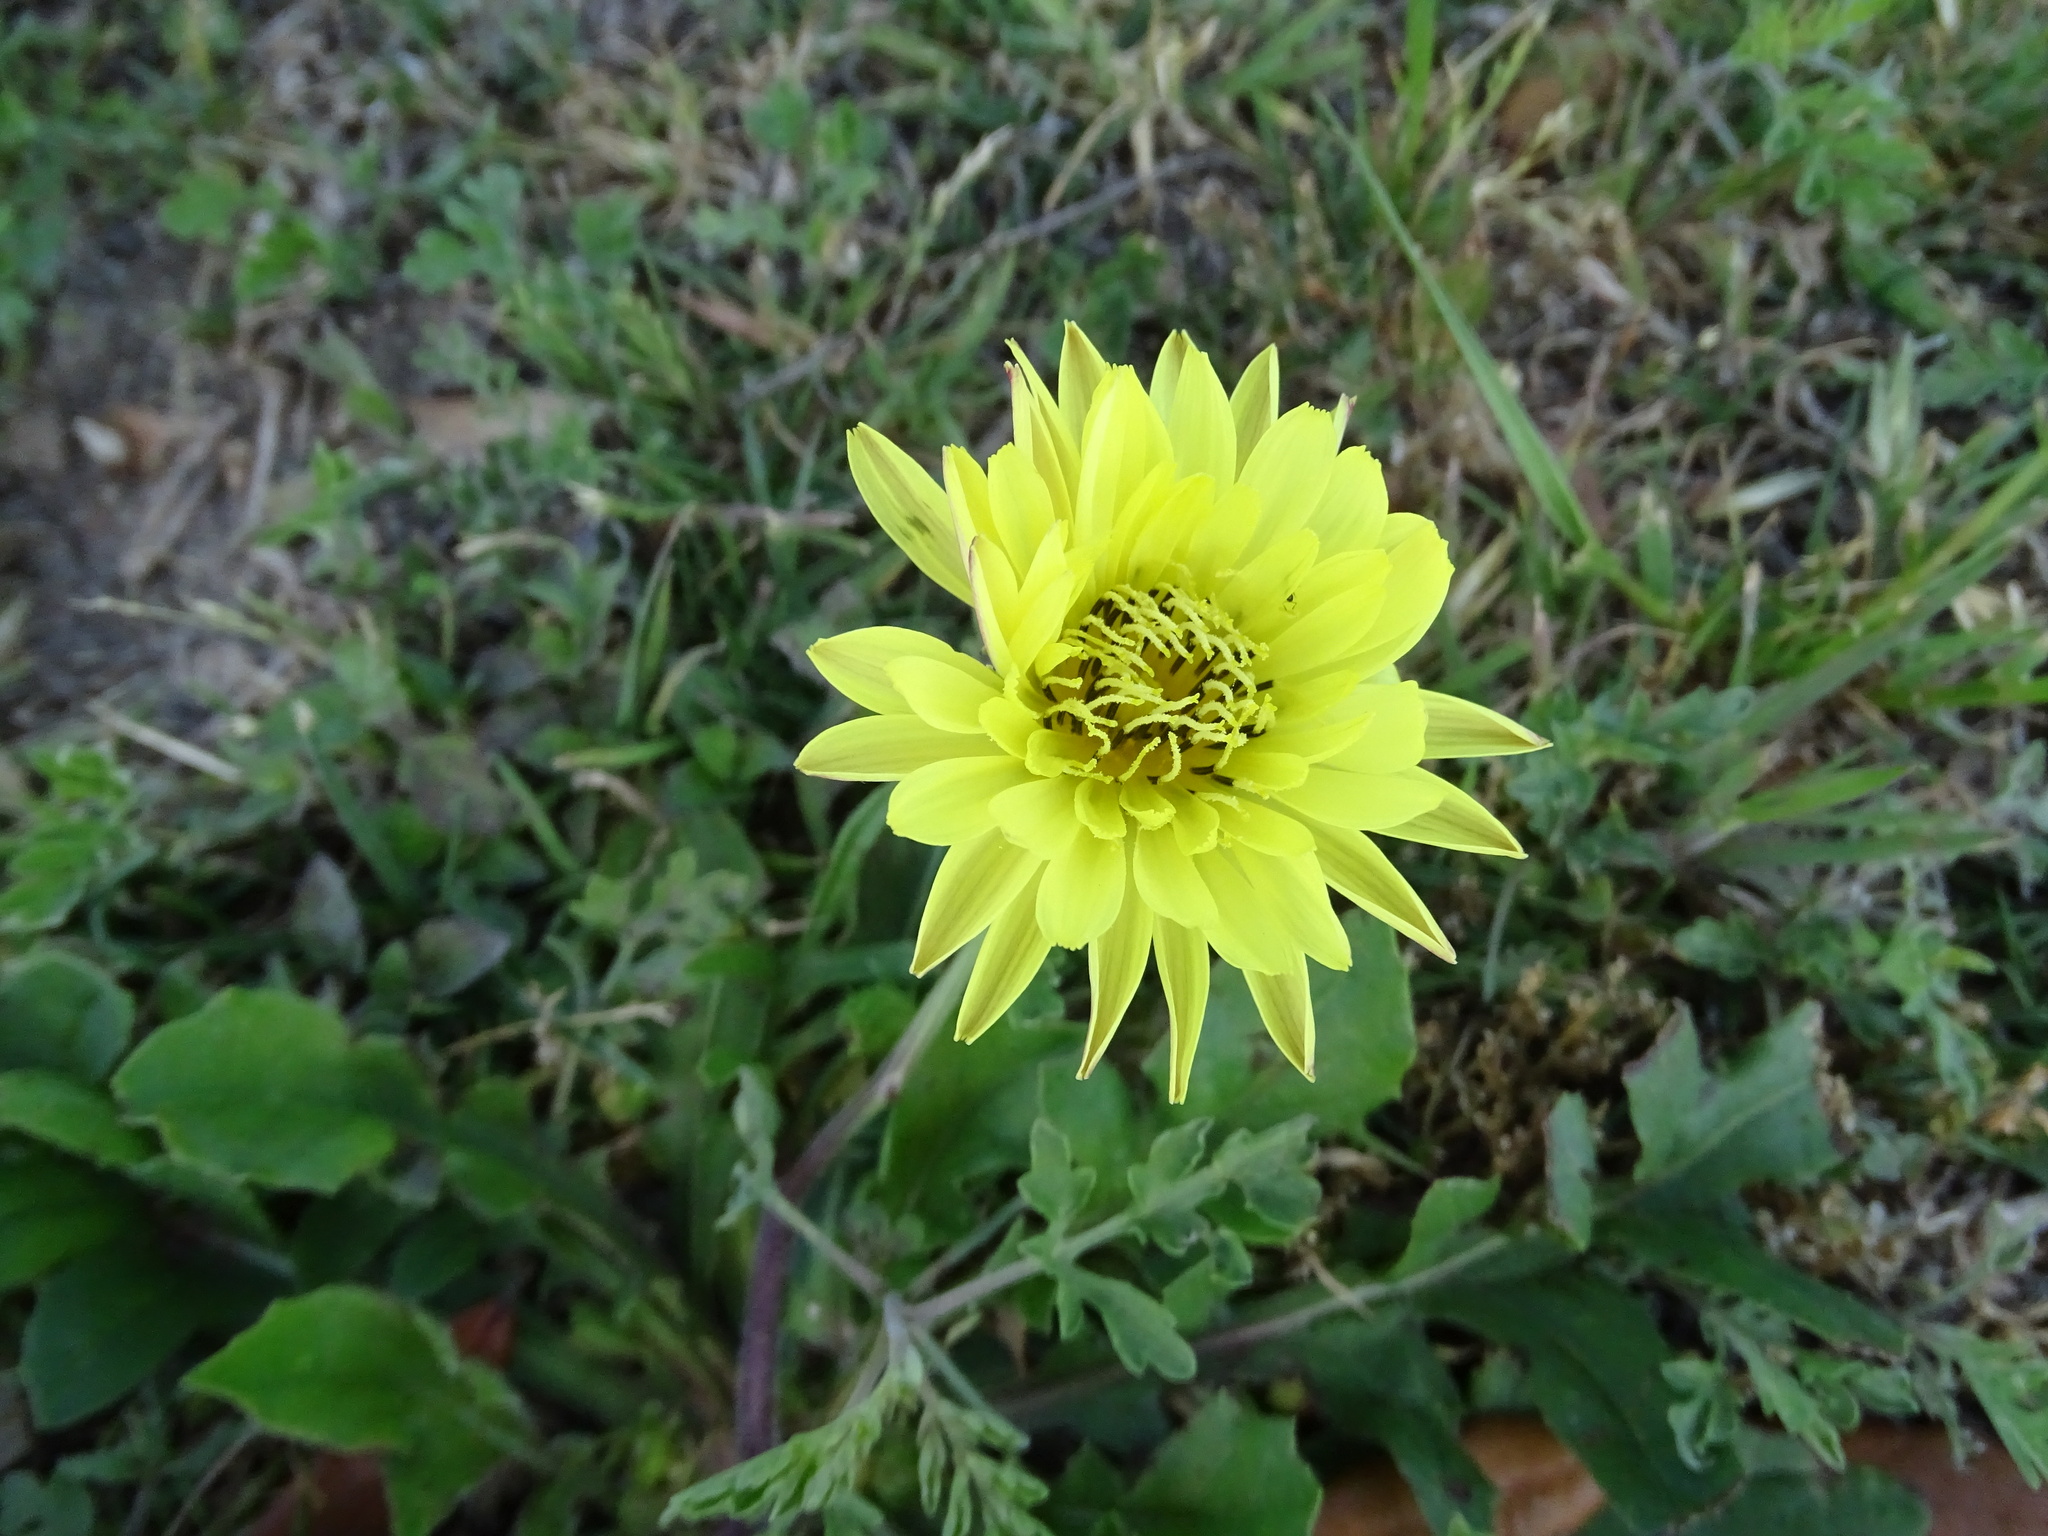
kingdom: Plantae
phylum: Tracheophyta
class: Magnoliopsida
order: Asterales
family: Asteraceae
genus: Pyrrhopappus
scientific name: Pyrrhopappus pauciflorus
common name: Texas false dandelion
